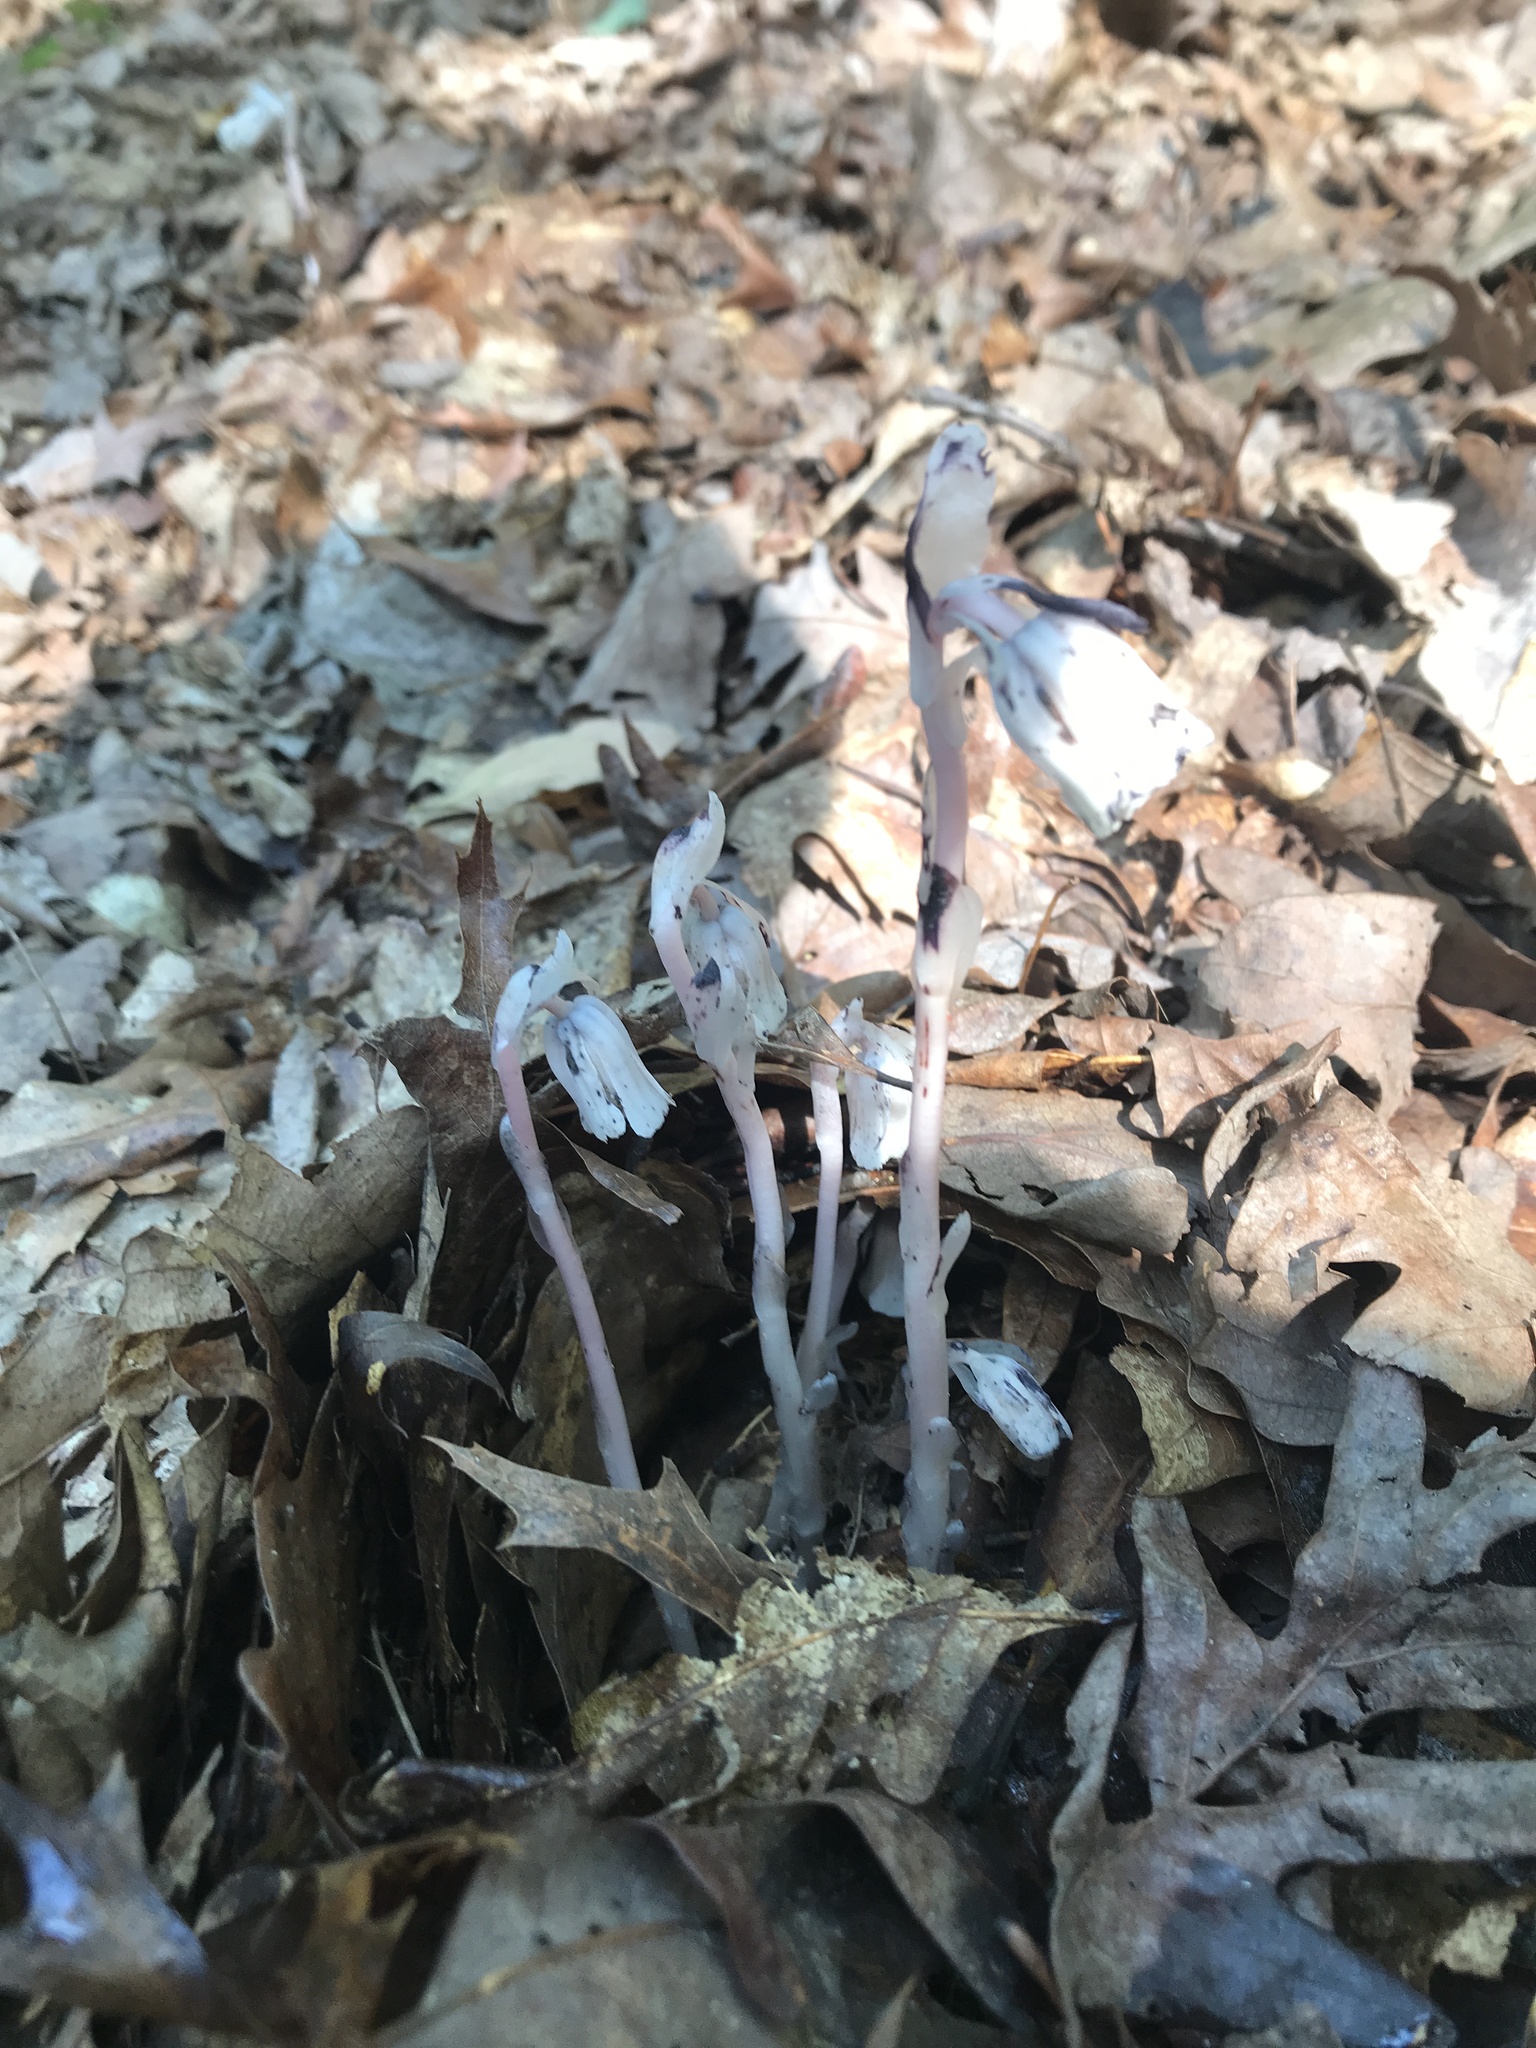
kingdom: Plantae
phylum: Tracheophyta
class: Magnoliopsida
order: Ericales
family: Ericaceae
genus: Monotropa
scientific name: Monotropa uniflora
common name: Convulsion root
